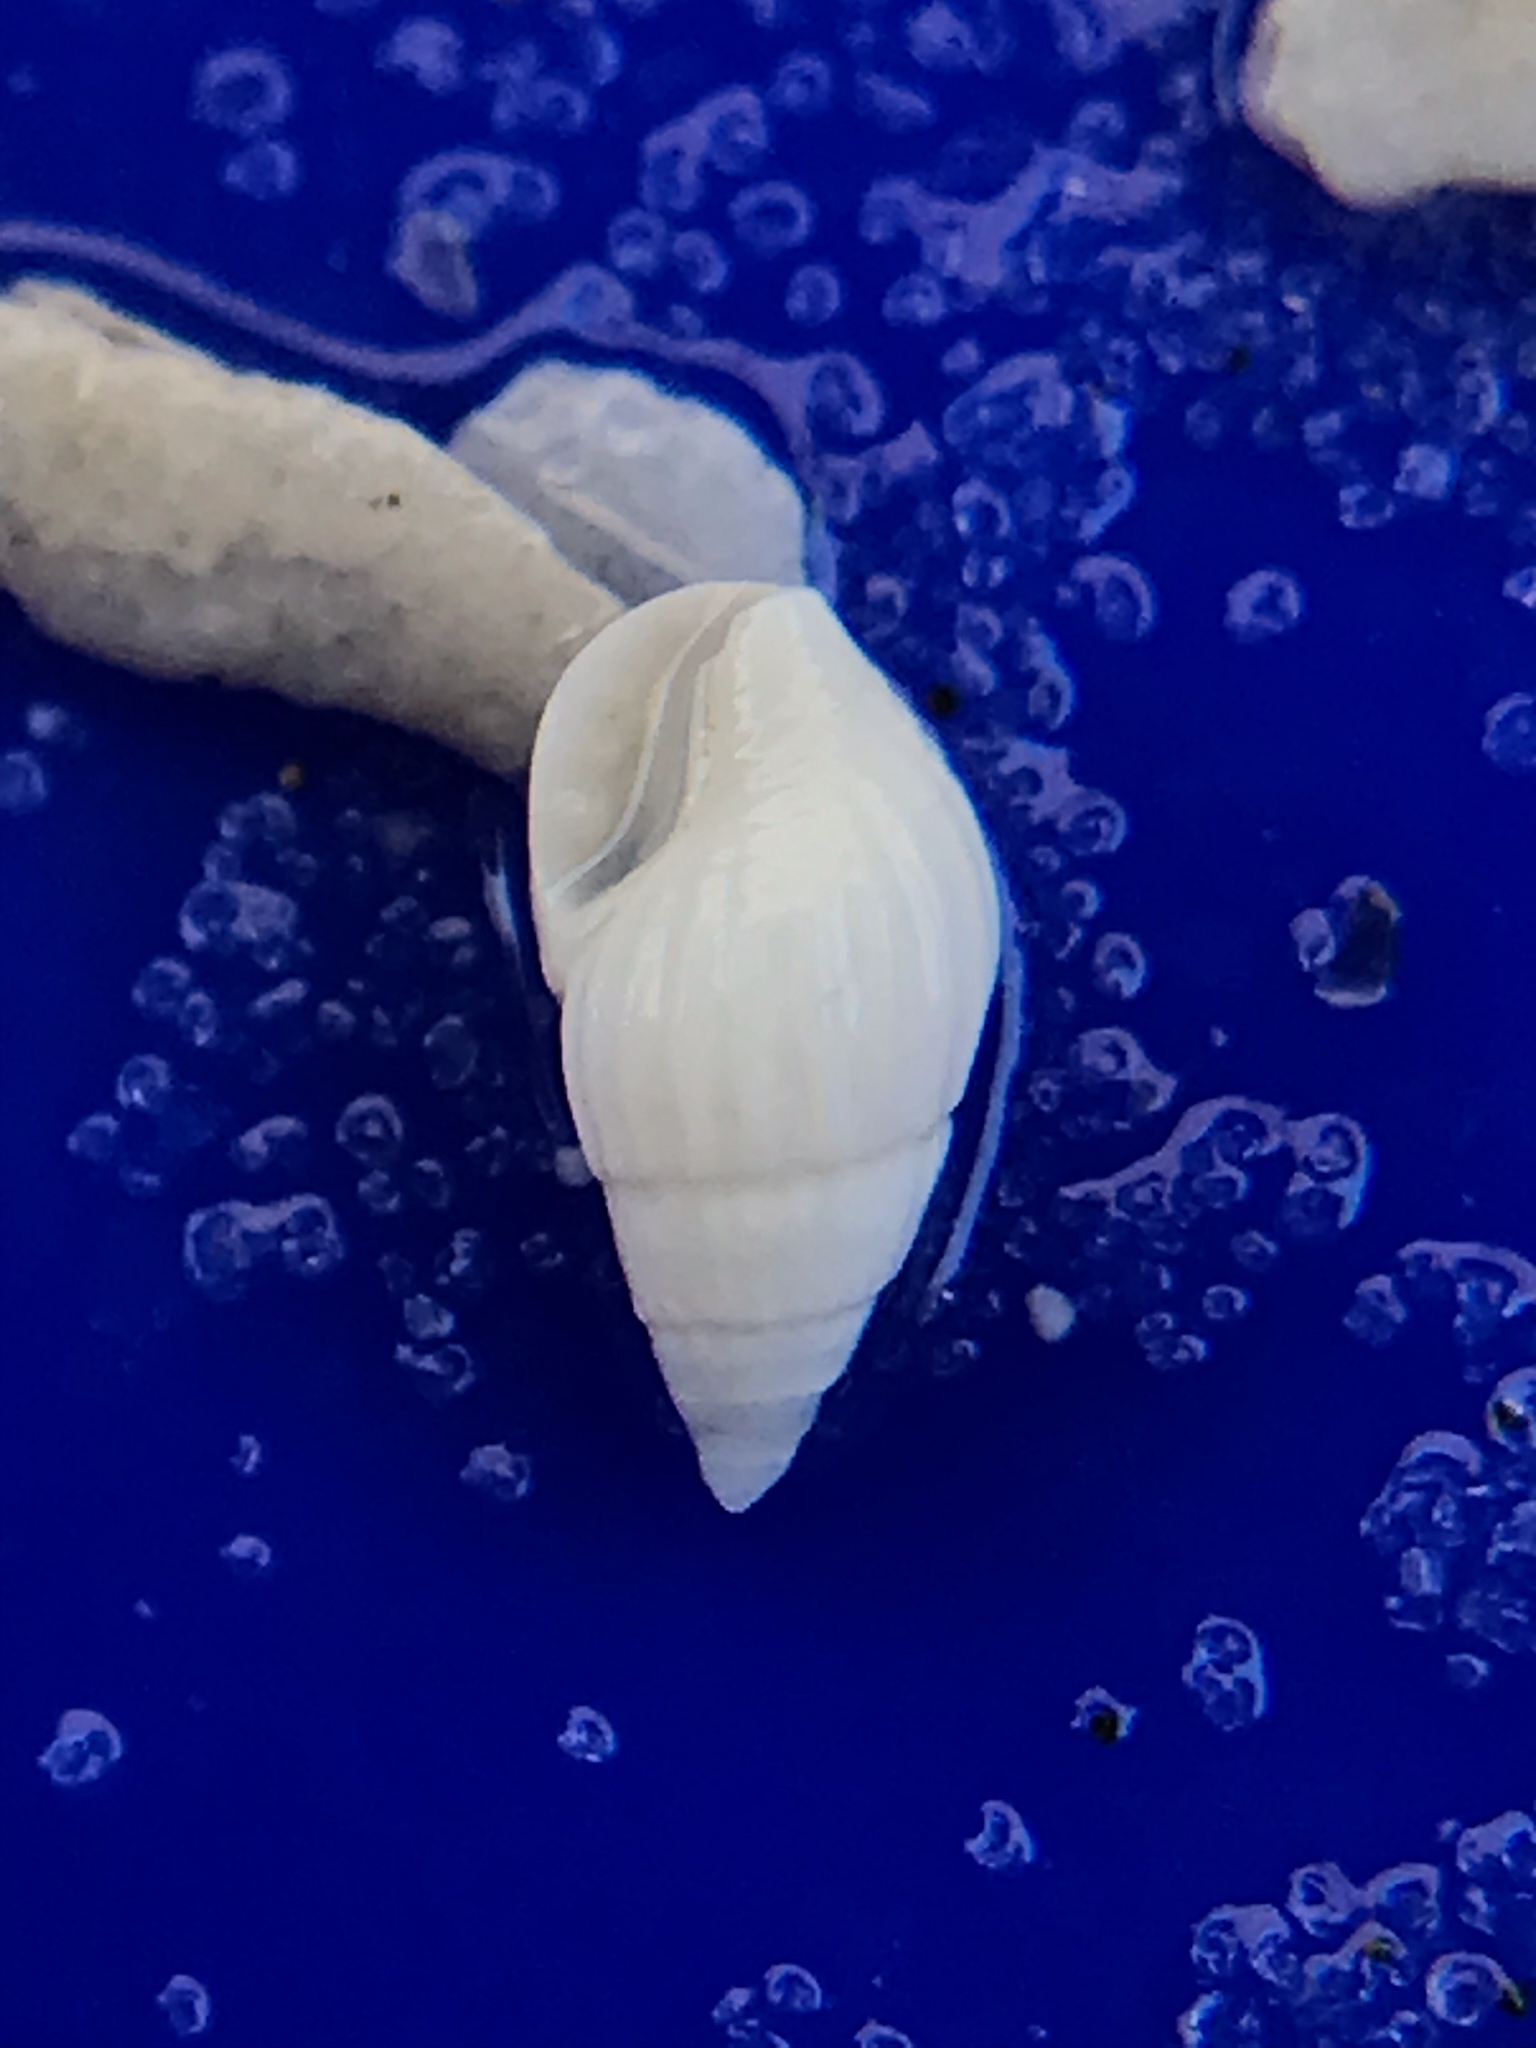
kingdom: Animalia
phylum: Mollusca
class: Gastropoda
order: Neogastropoda
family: Columbellidae
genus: Parvanachis
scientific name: Parvanachis obesa
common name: Fat dovesnail
